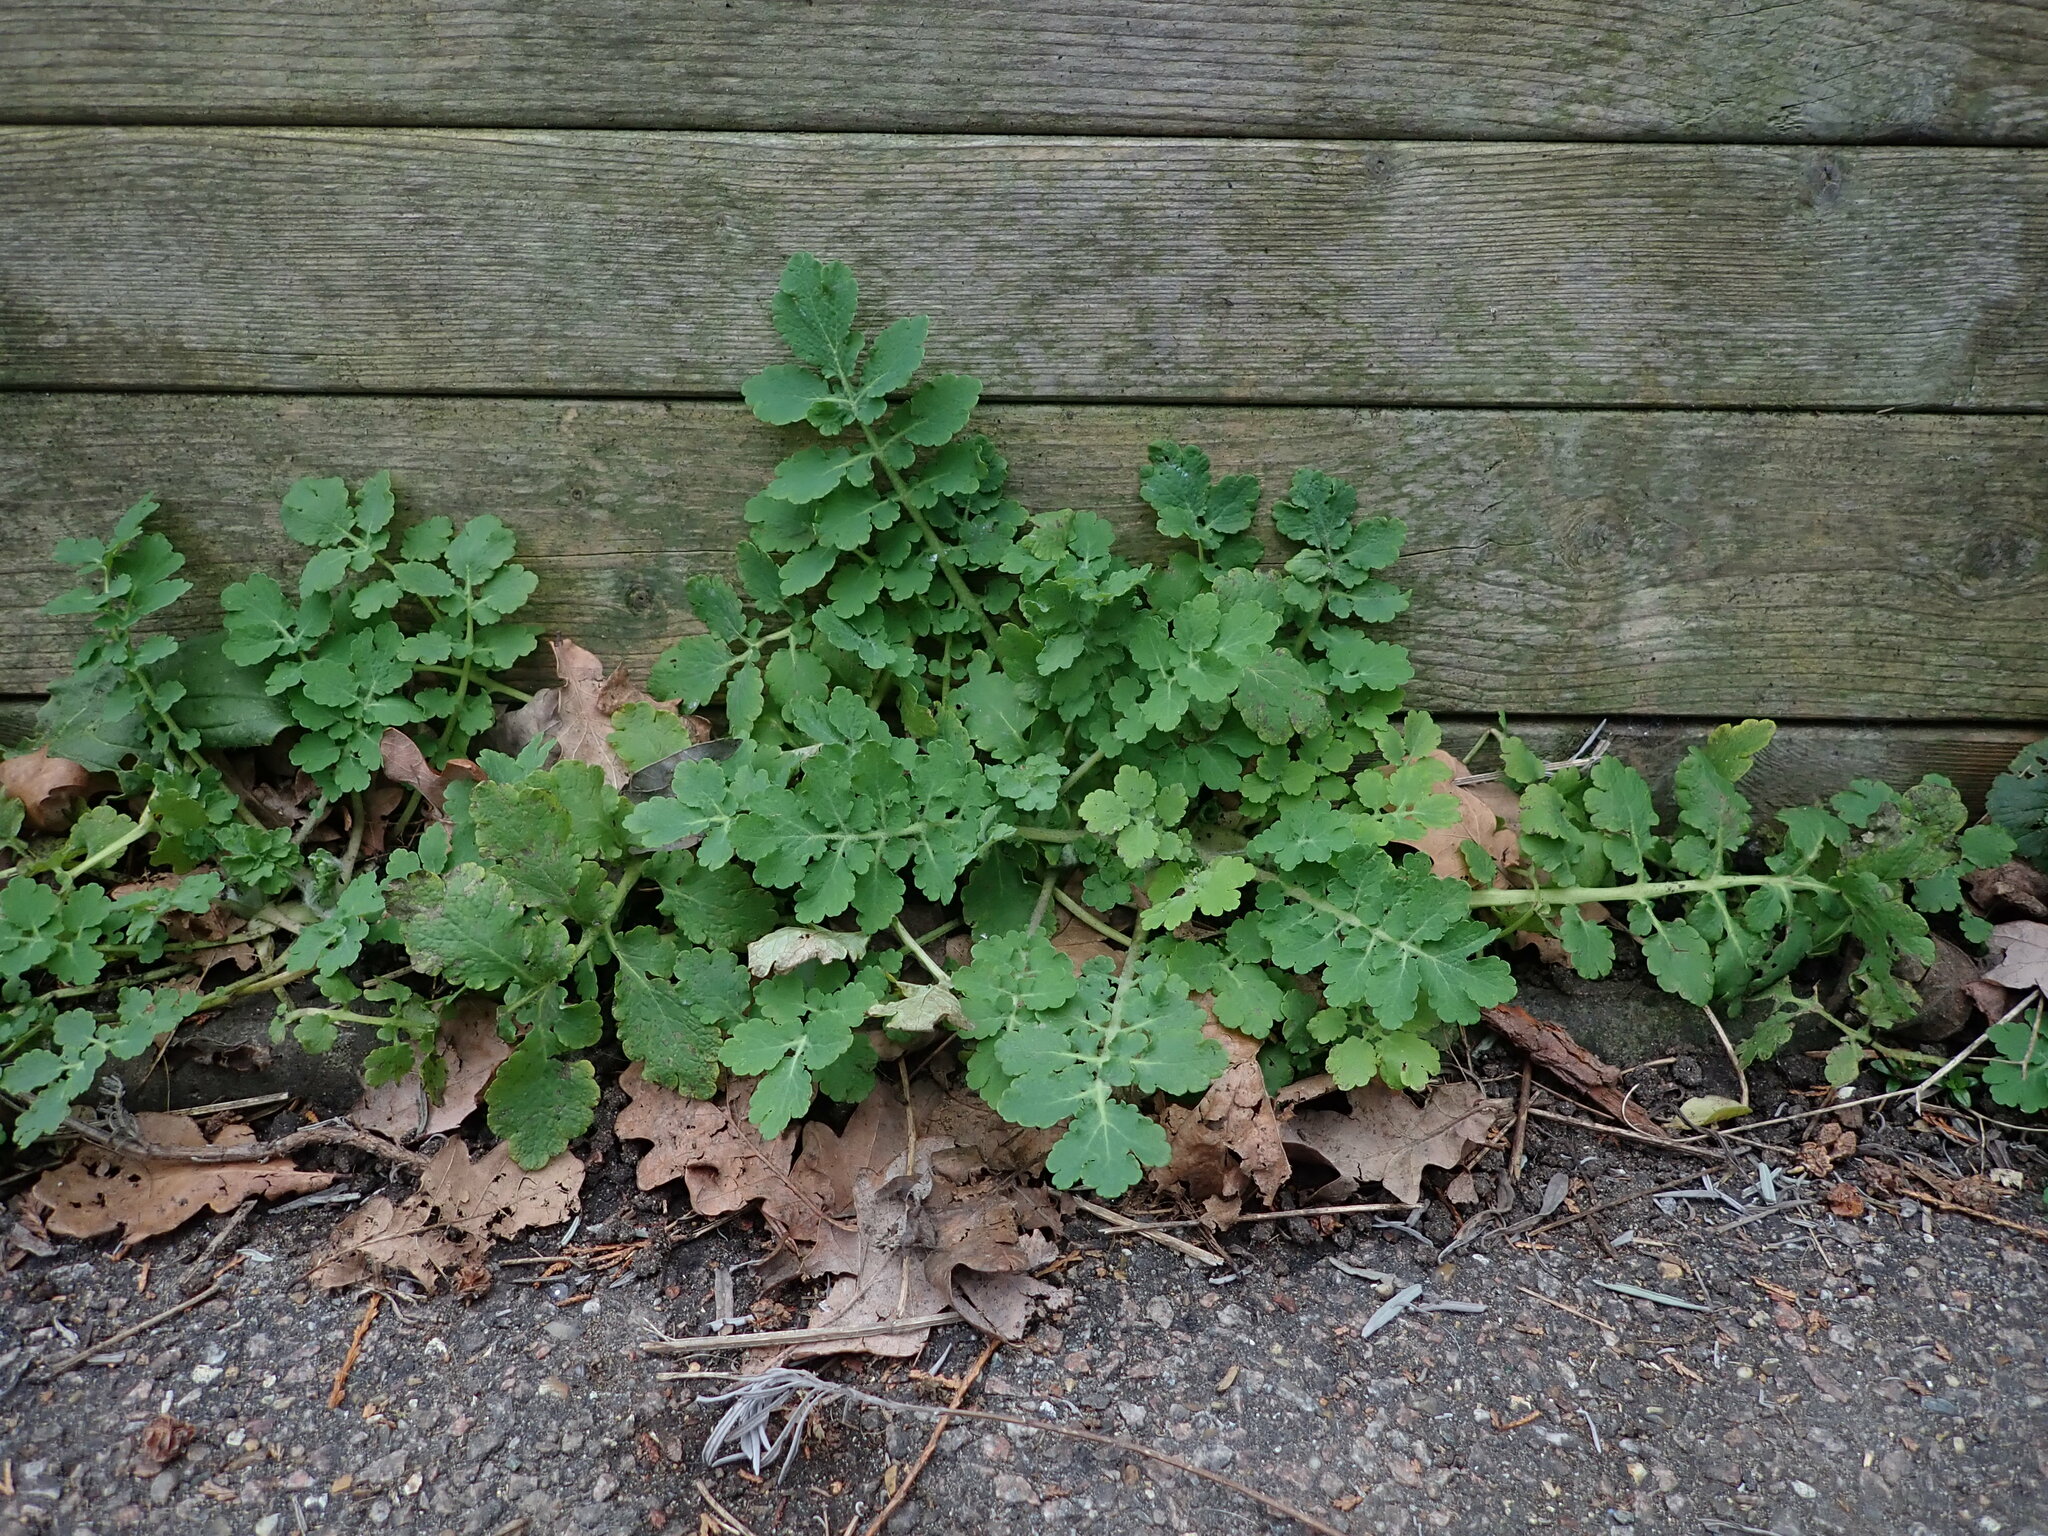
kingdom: Plantae
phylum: Tracheophyta
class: Magnoliopsida
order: Ranunculales
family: Papaveraceae
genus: Chelidonium
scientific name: Chelidonium majus
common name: Greater celandine
